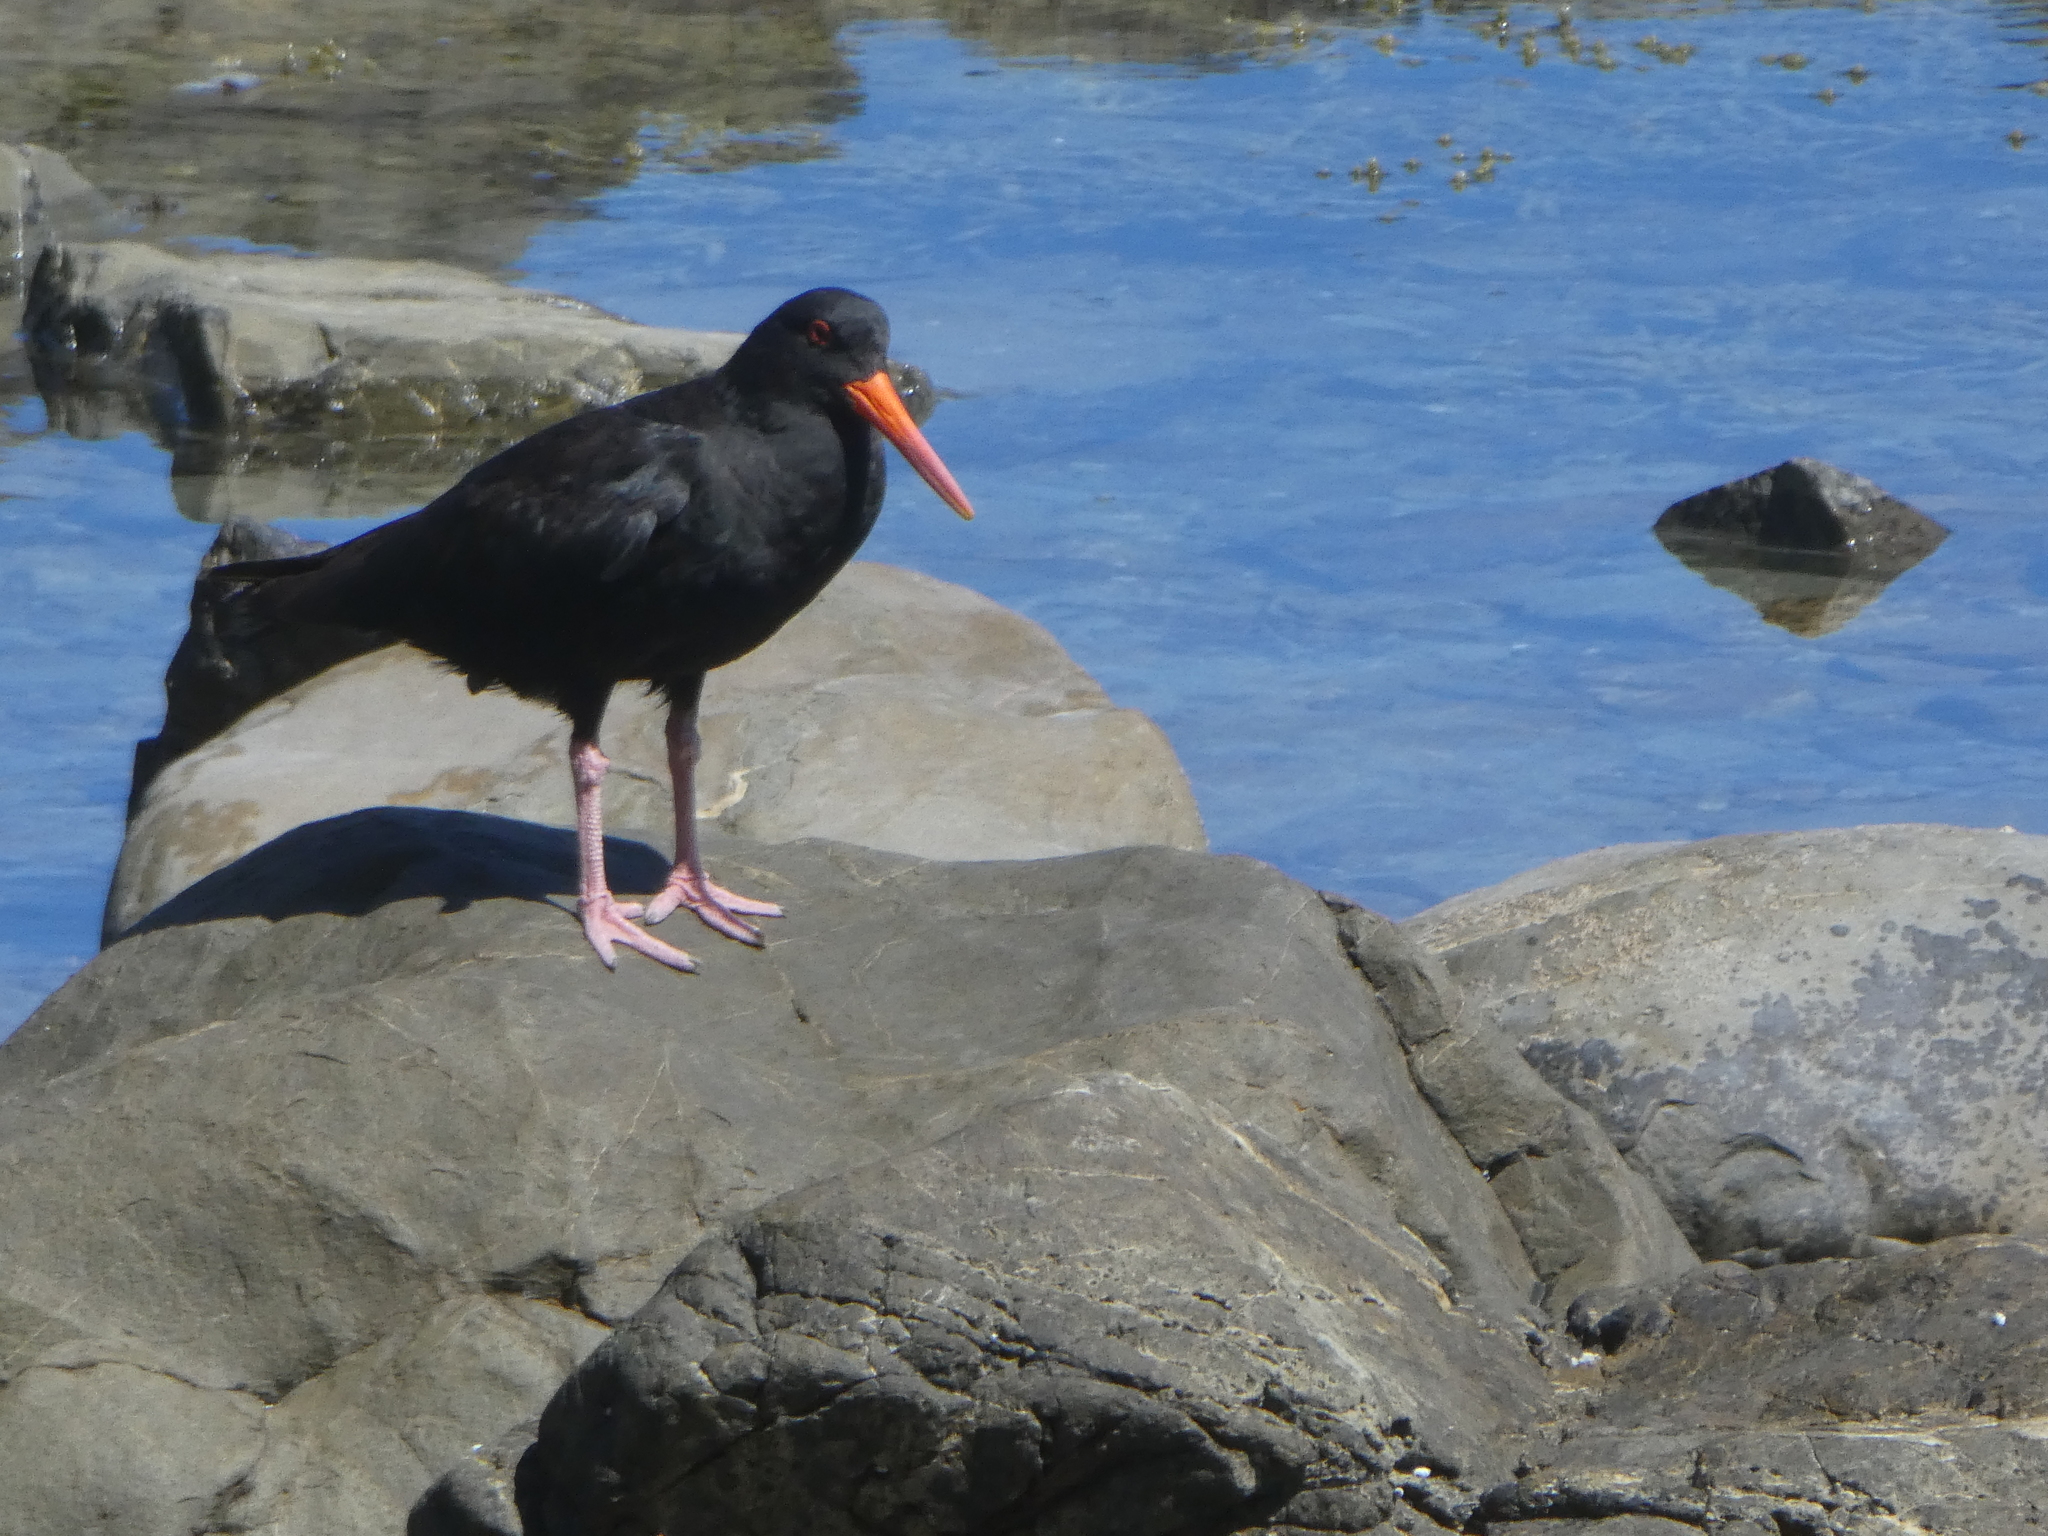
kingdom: Animalia
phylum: Chordata
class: Aves
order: Charadriiformes
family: Haematopodidae
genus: Haematopus
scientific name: Haematopus unicolor
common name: Variable oystercatcher
